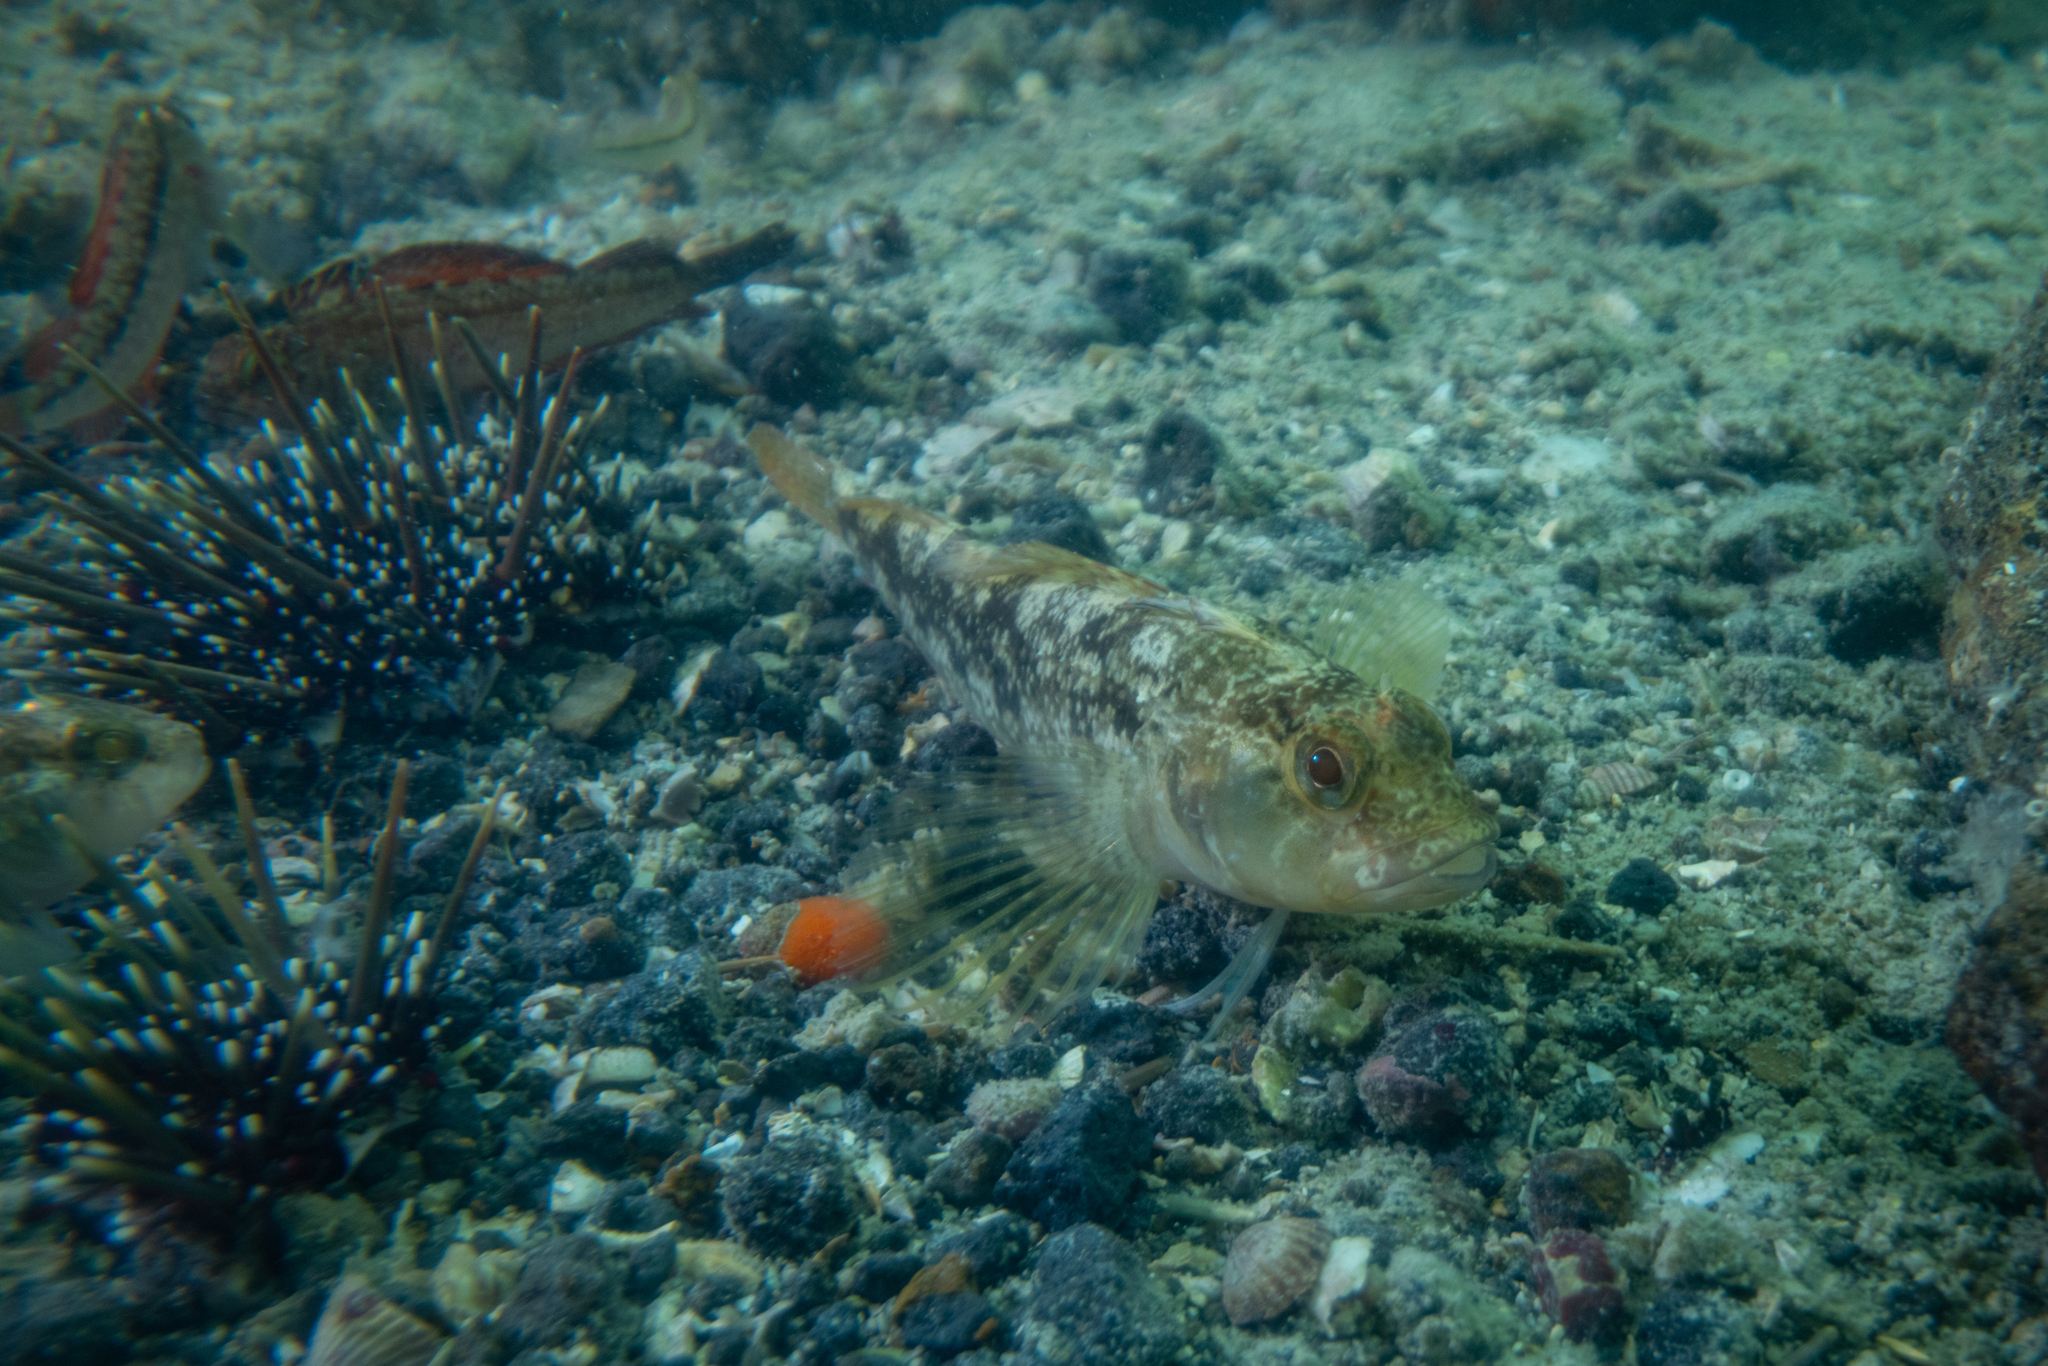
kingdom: Animalia
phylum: Chordata
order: Perciformes
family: Tripterygiidae
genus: Forsterygion
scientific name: Forsterygion capito
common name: Spotted robust triplefin
